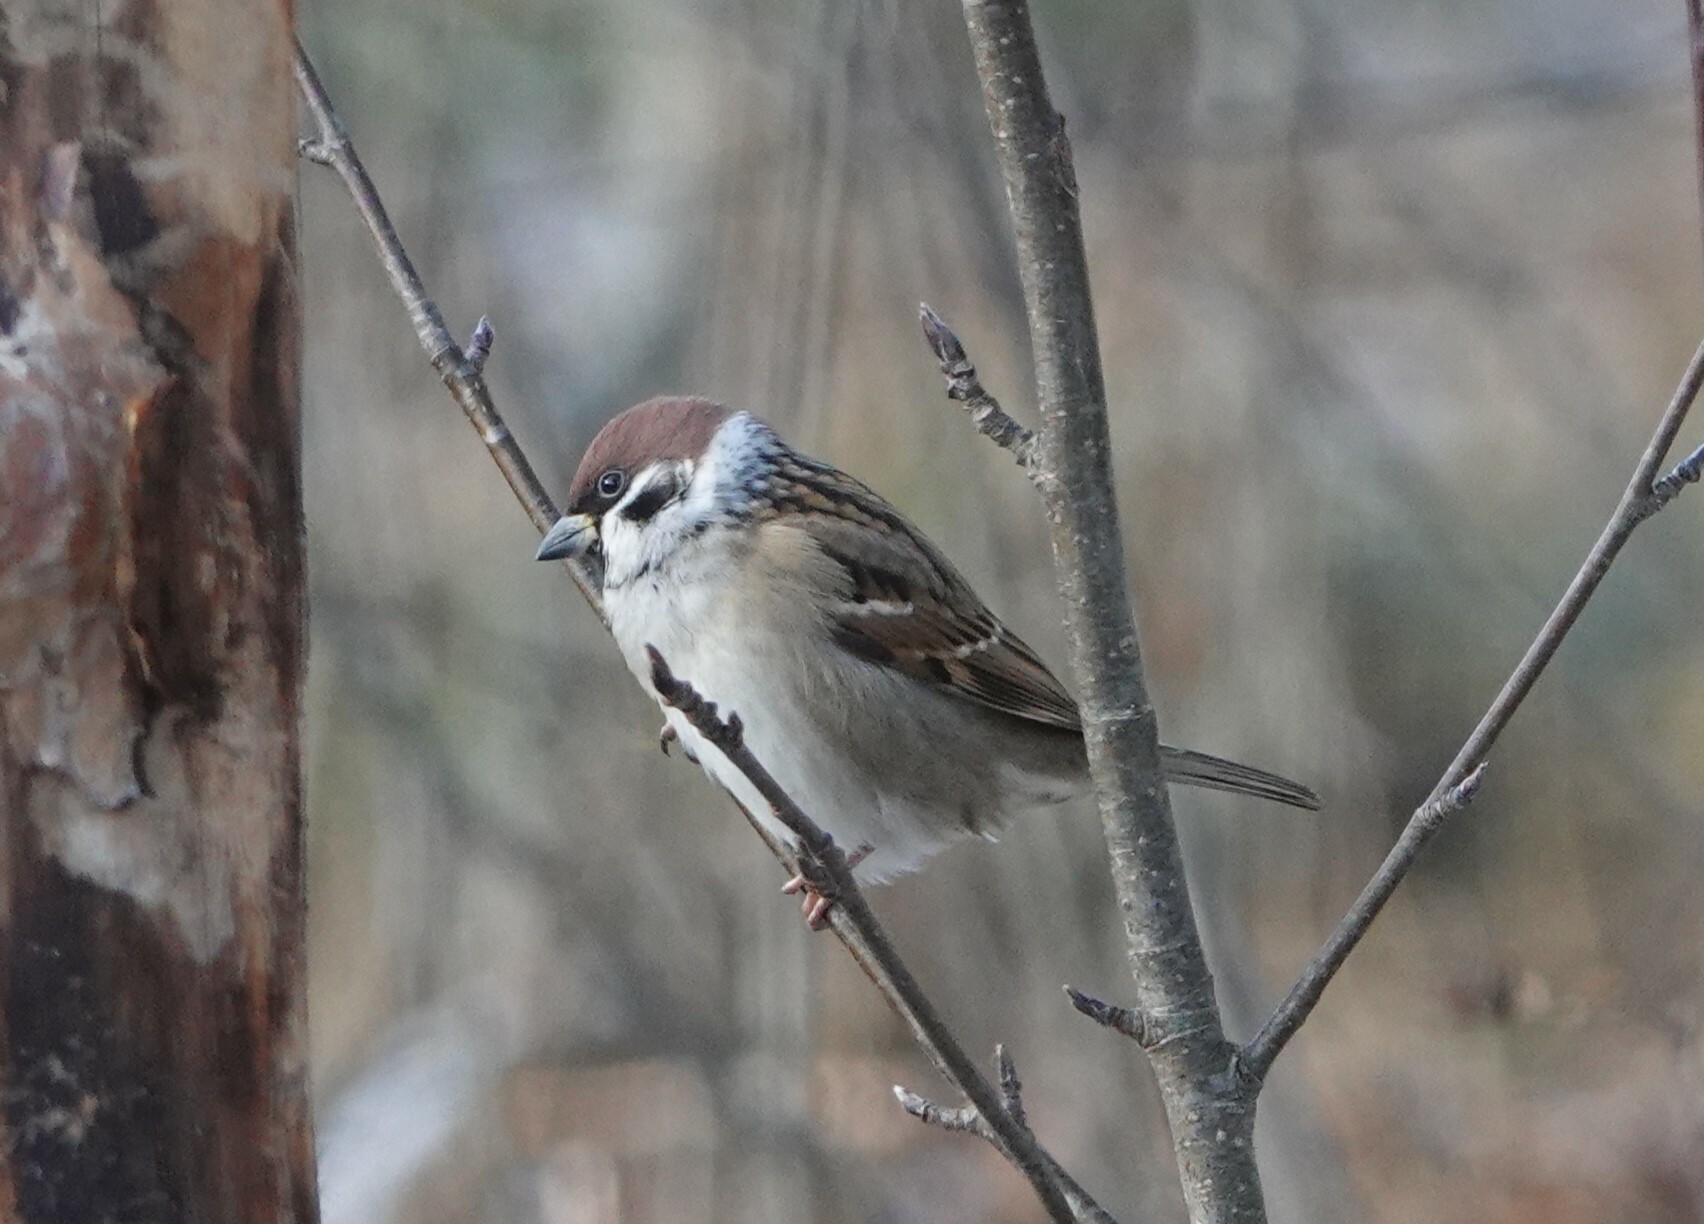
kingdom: Animalia
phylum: Chordata
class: Aves
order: Passeriformes
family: Passeridae
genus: Passer
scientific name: Passer montanus
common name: Eurasian tree sparrow
